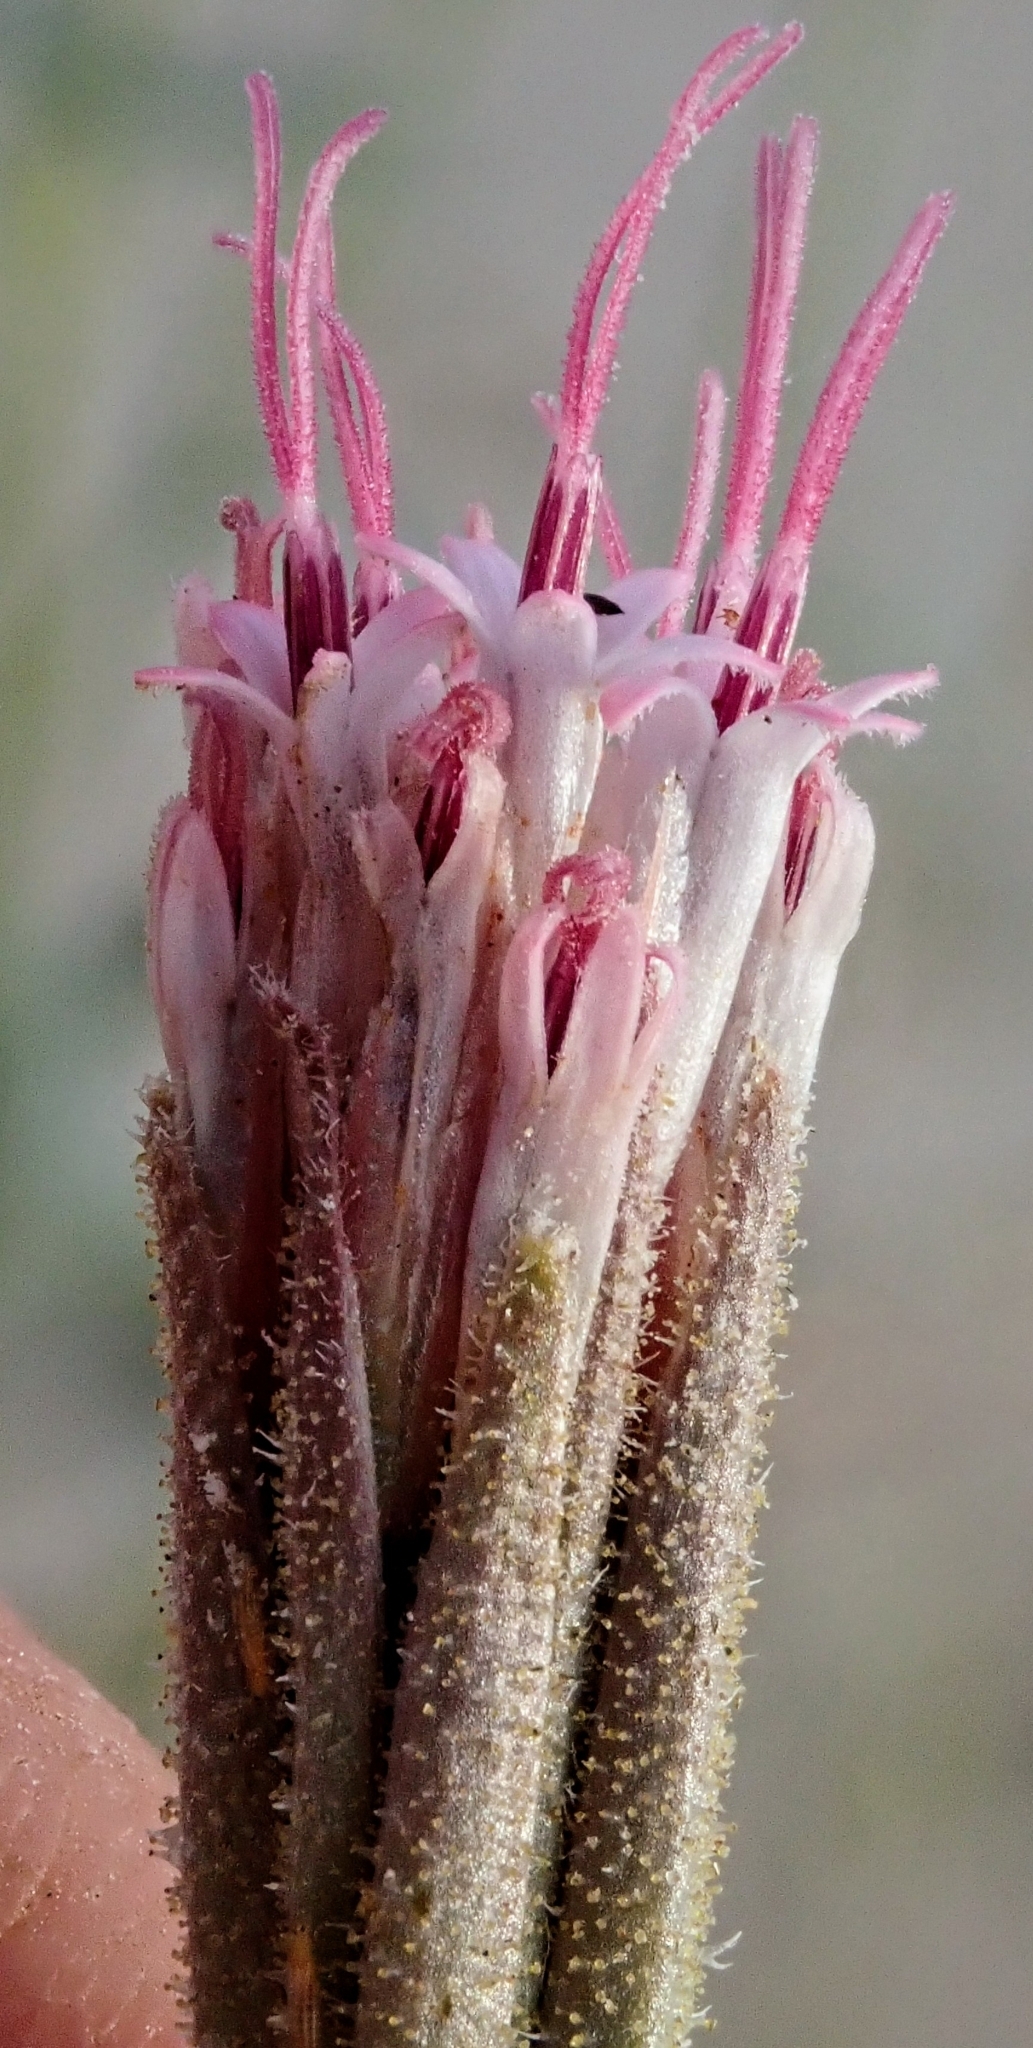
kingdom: Plantae
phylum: Tracheophyta
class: Magnoliopsida
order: Asterales
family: Asteraceae
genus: Palafoxia
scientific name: Palafoxia arida
